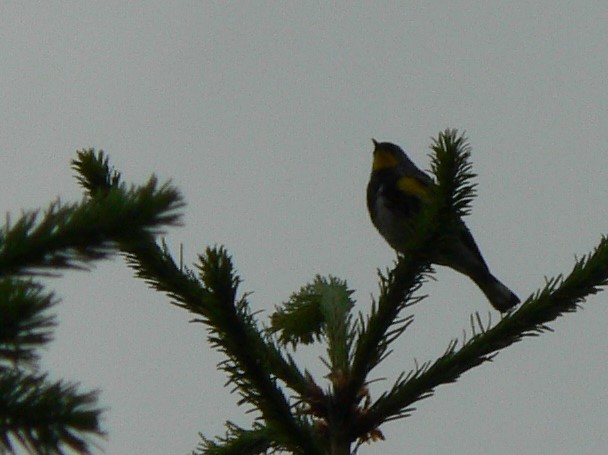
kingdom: Animalia
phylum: Chordata
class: Aves
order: Passeriformes
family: Parulidae
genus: Setophaga
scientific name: Setophaga auduboni
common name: Audubon's warbler
